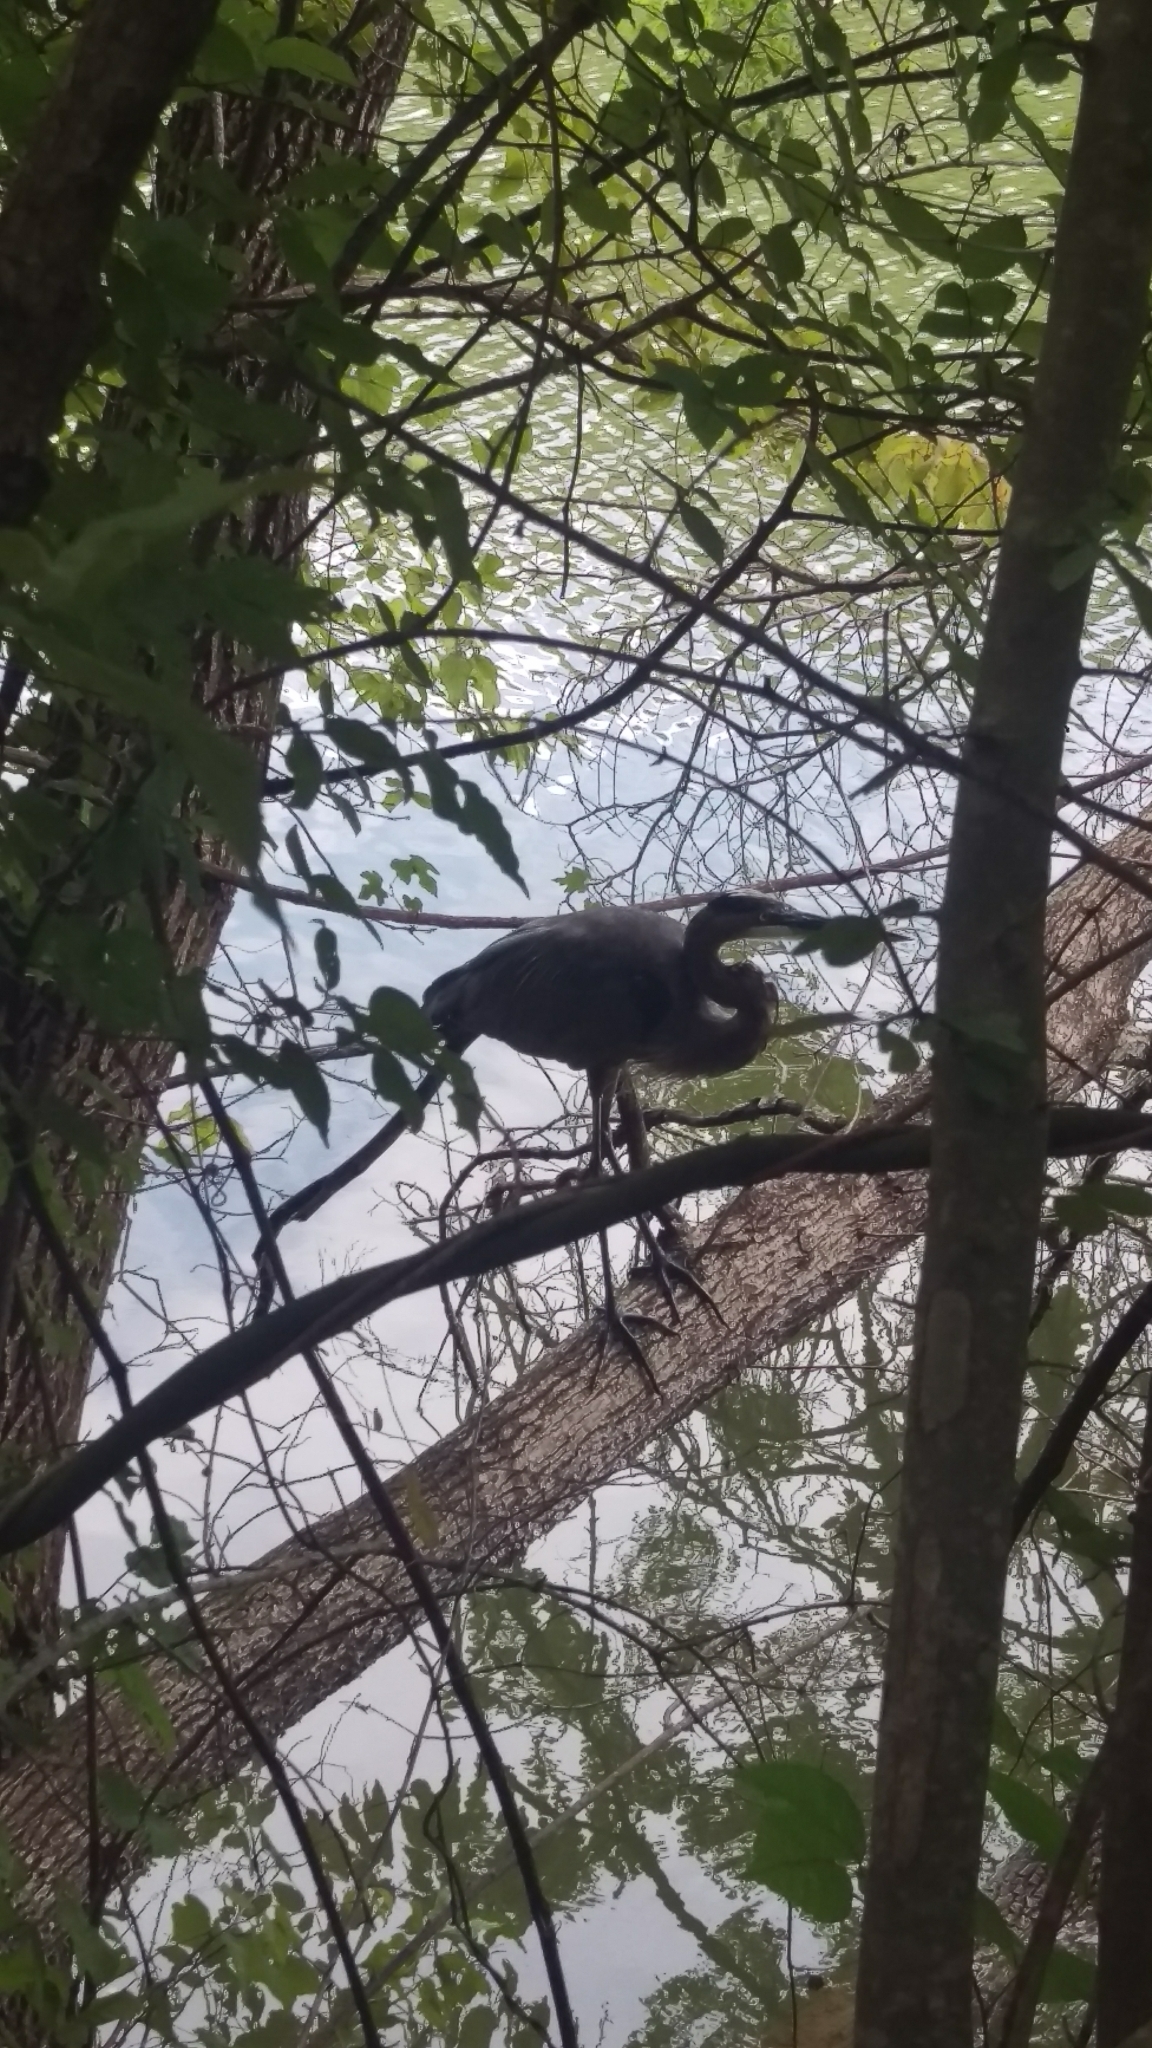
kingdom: Animalia
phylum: Chordata
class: Aves
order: Pelecaniformes
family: Ardeidae
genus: Ardea
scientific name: Ardea herodias
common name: Great blue heron
